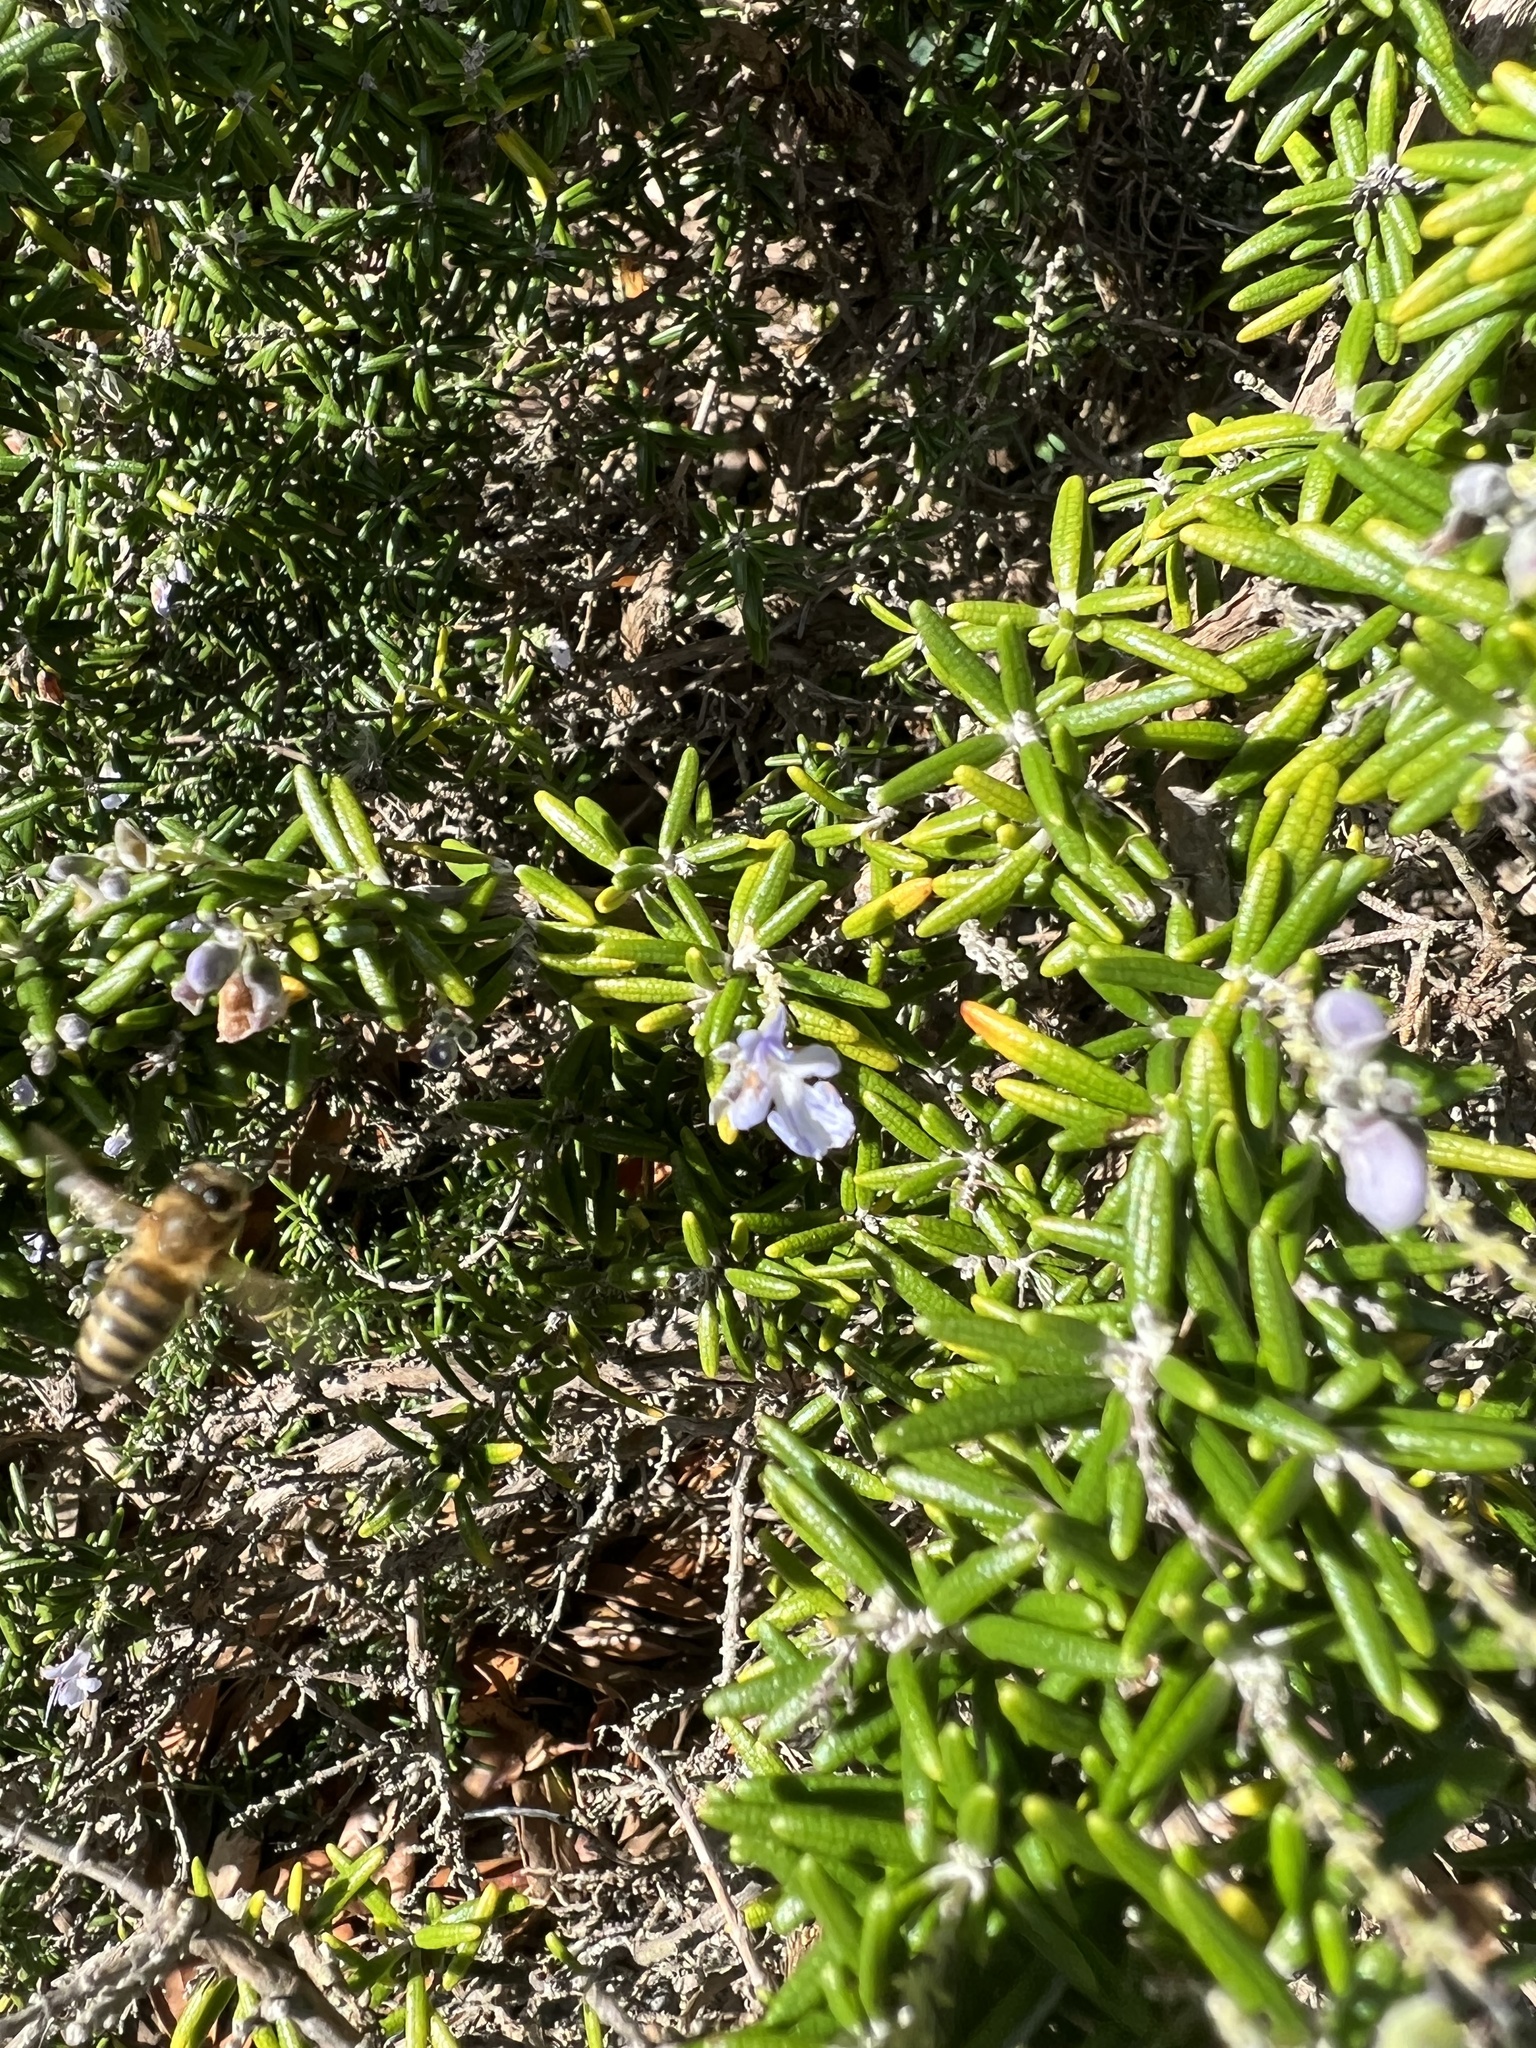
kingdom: Animalia
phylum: Arthropoda
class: Insecta
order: Hymenoptera
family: Apidae
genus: Apis
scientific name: Apis mellifera
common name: Honey bee
